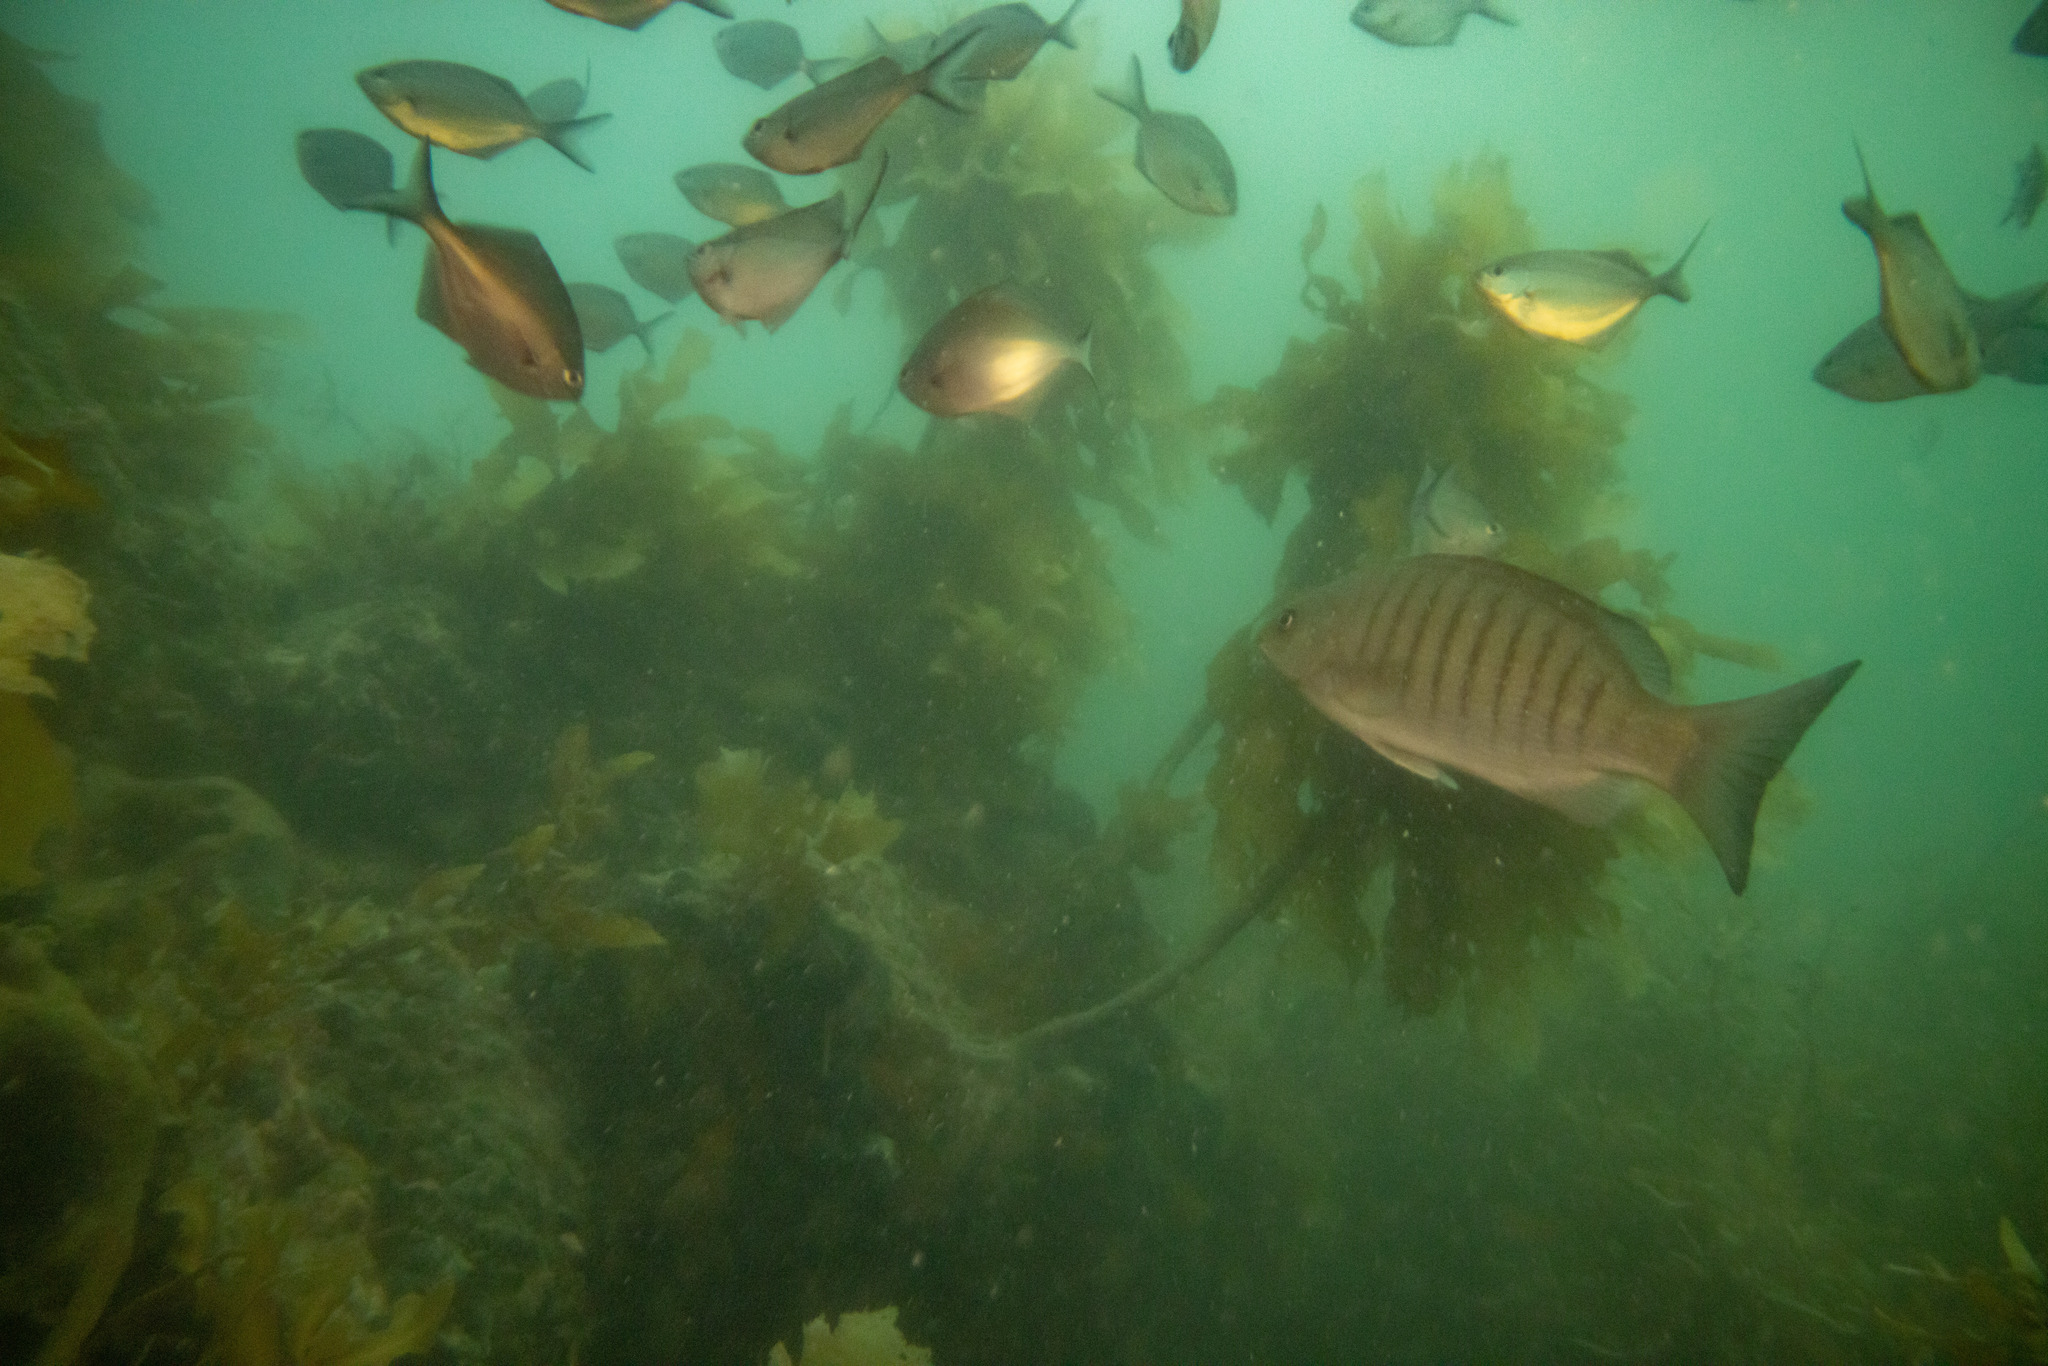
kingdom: Animalia
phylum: Chordata
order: Perciformes
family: Kyphosidae
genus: Girella
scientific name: Girella tricuspidata
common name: Parore
